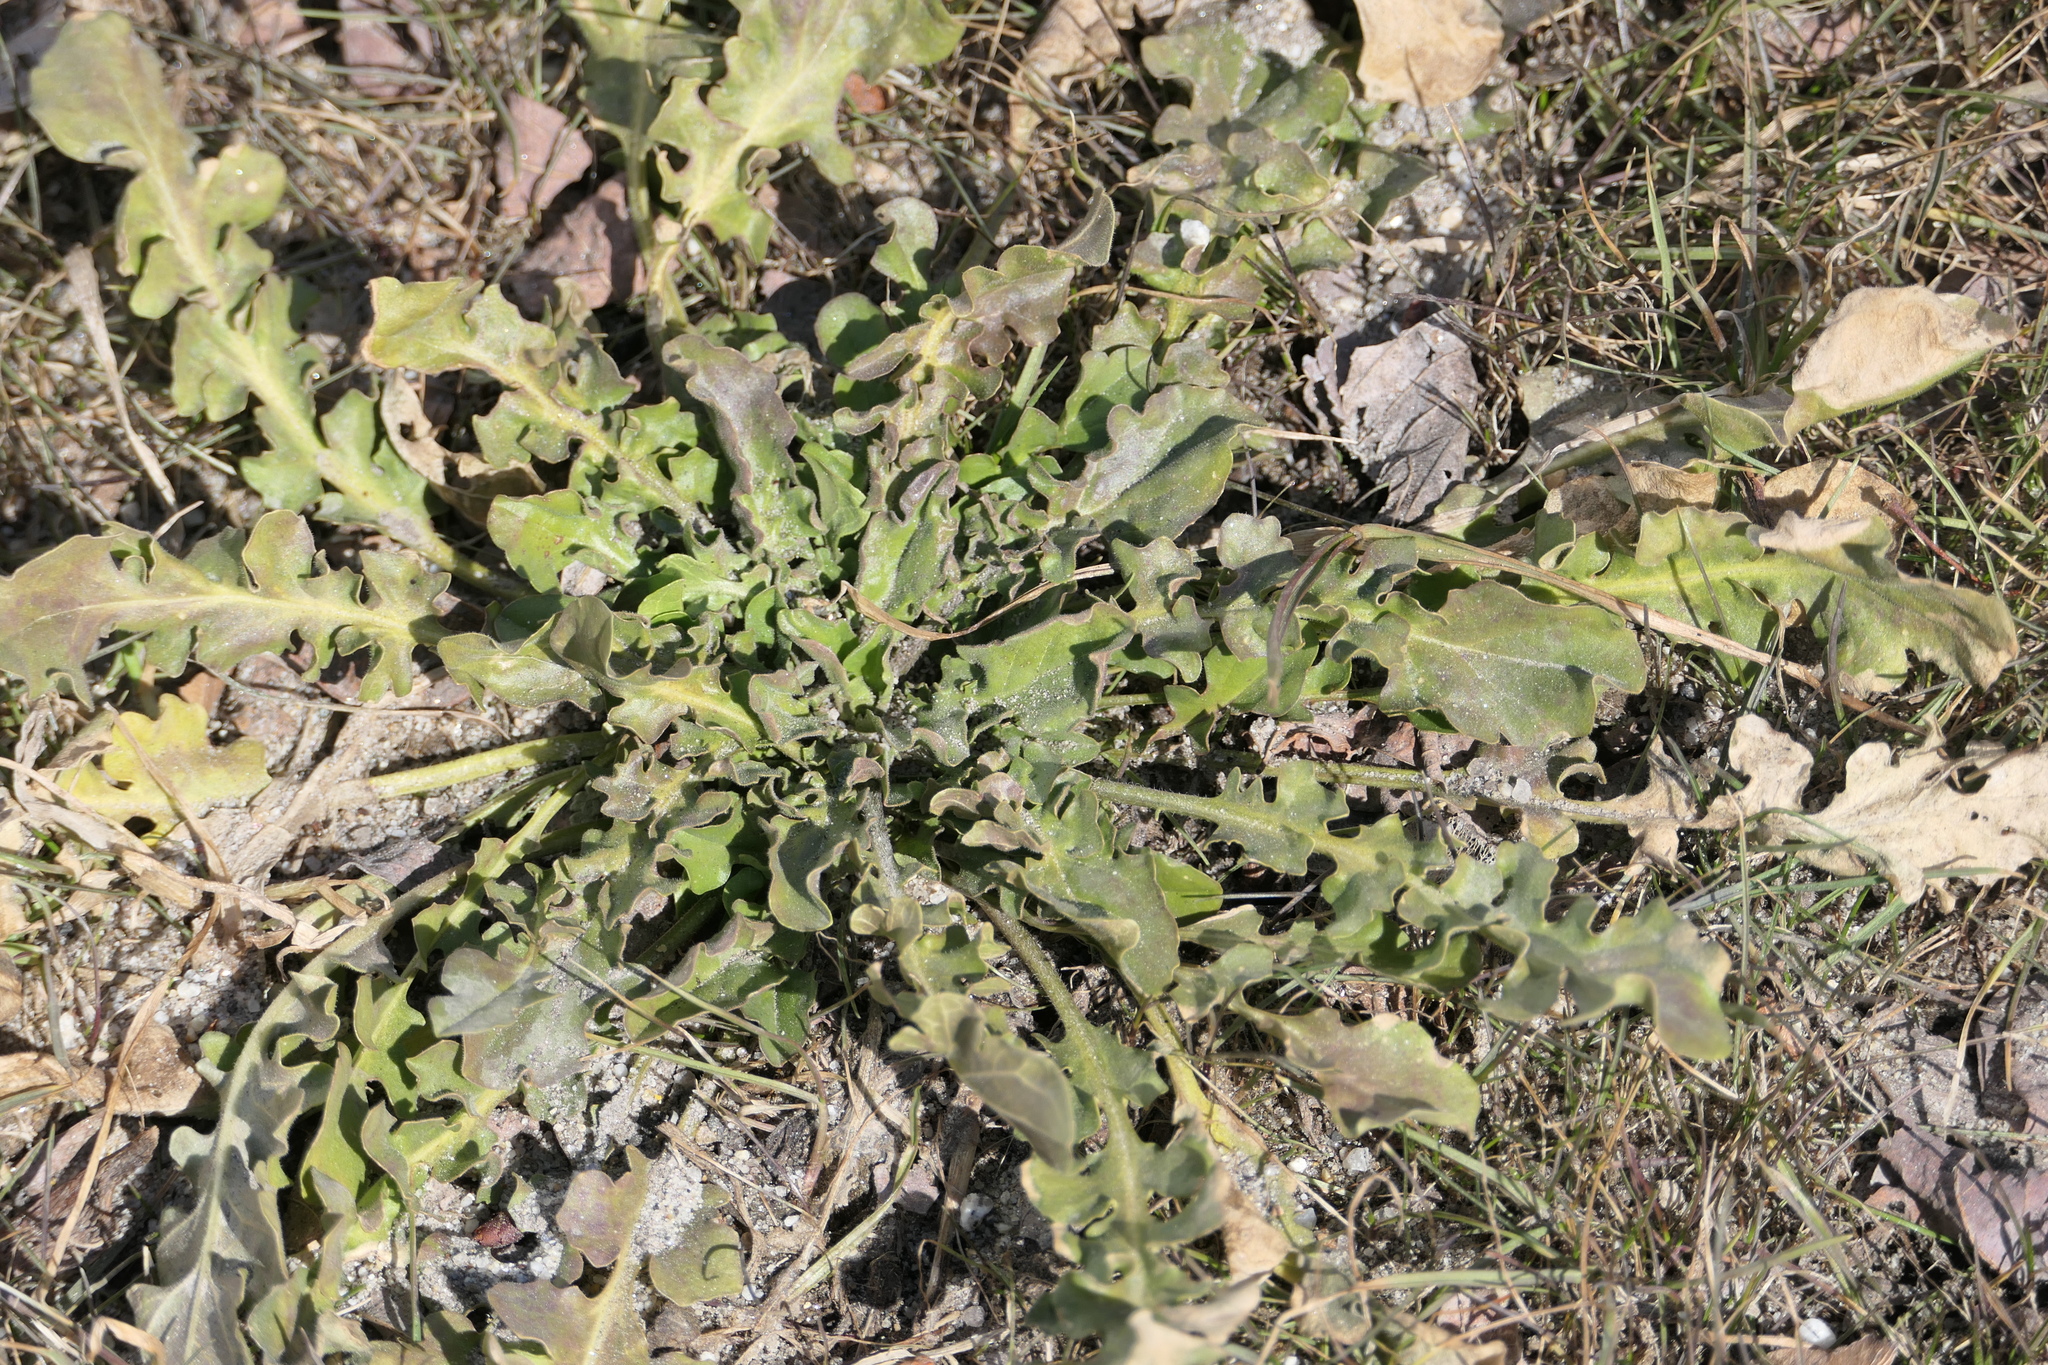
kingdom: Plantae
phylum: Tracheophyta
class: Magnoliopsida
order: Asterales
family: Asteraceae
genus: Taraxacum
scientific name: Taraxacum officinale
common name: Common dandelion
